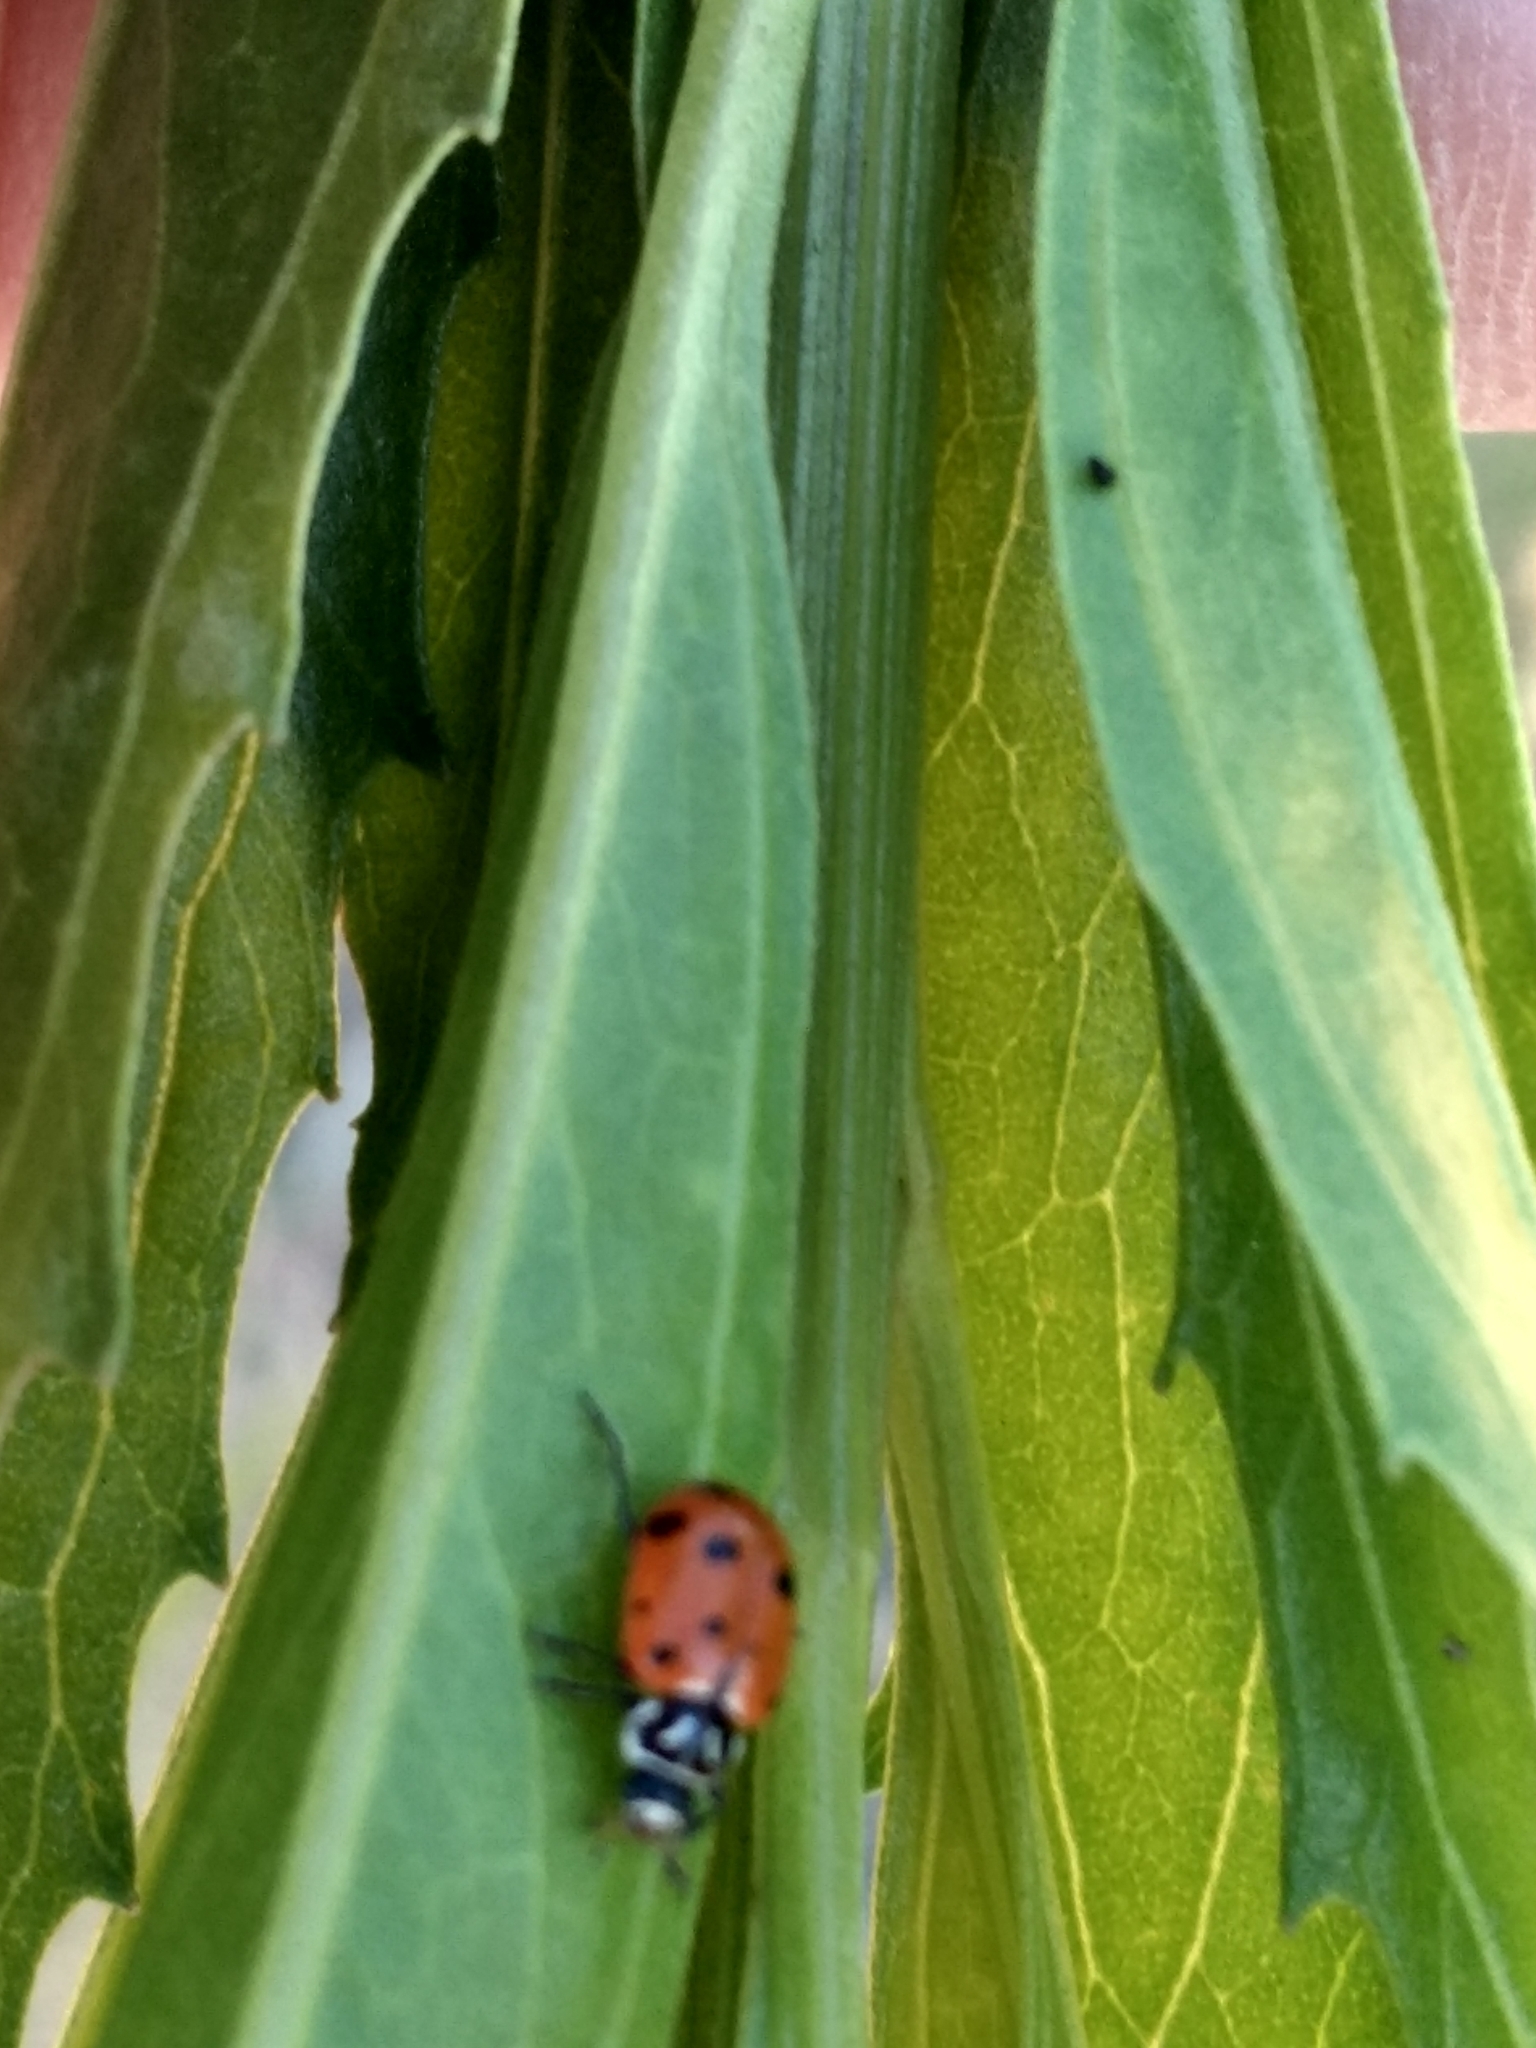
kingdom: Animalia
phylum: Arthropoda
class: Insecta
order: Coleoptera
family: Coccinellidae
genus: Hippodamia
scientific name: Hippodamia convergens
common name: Convergent lady beetle
